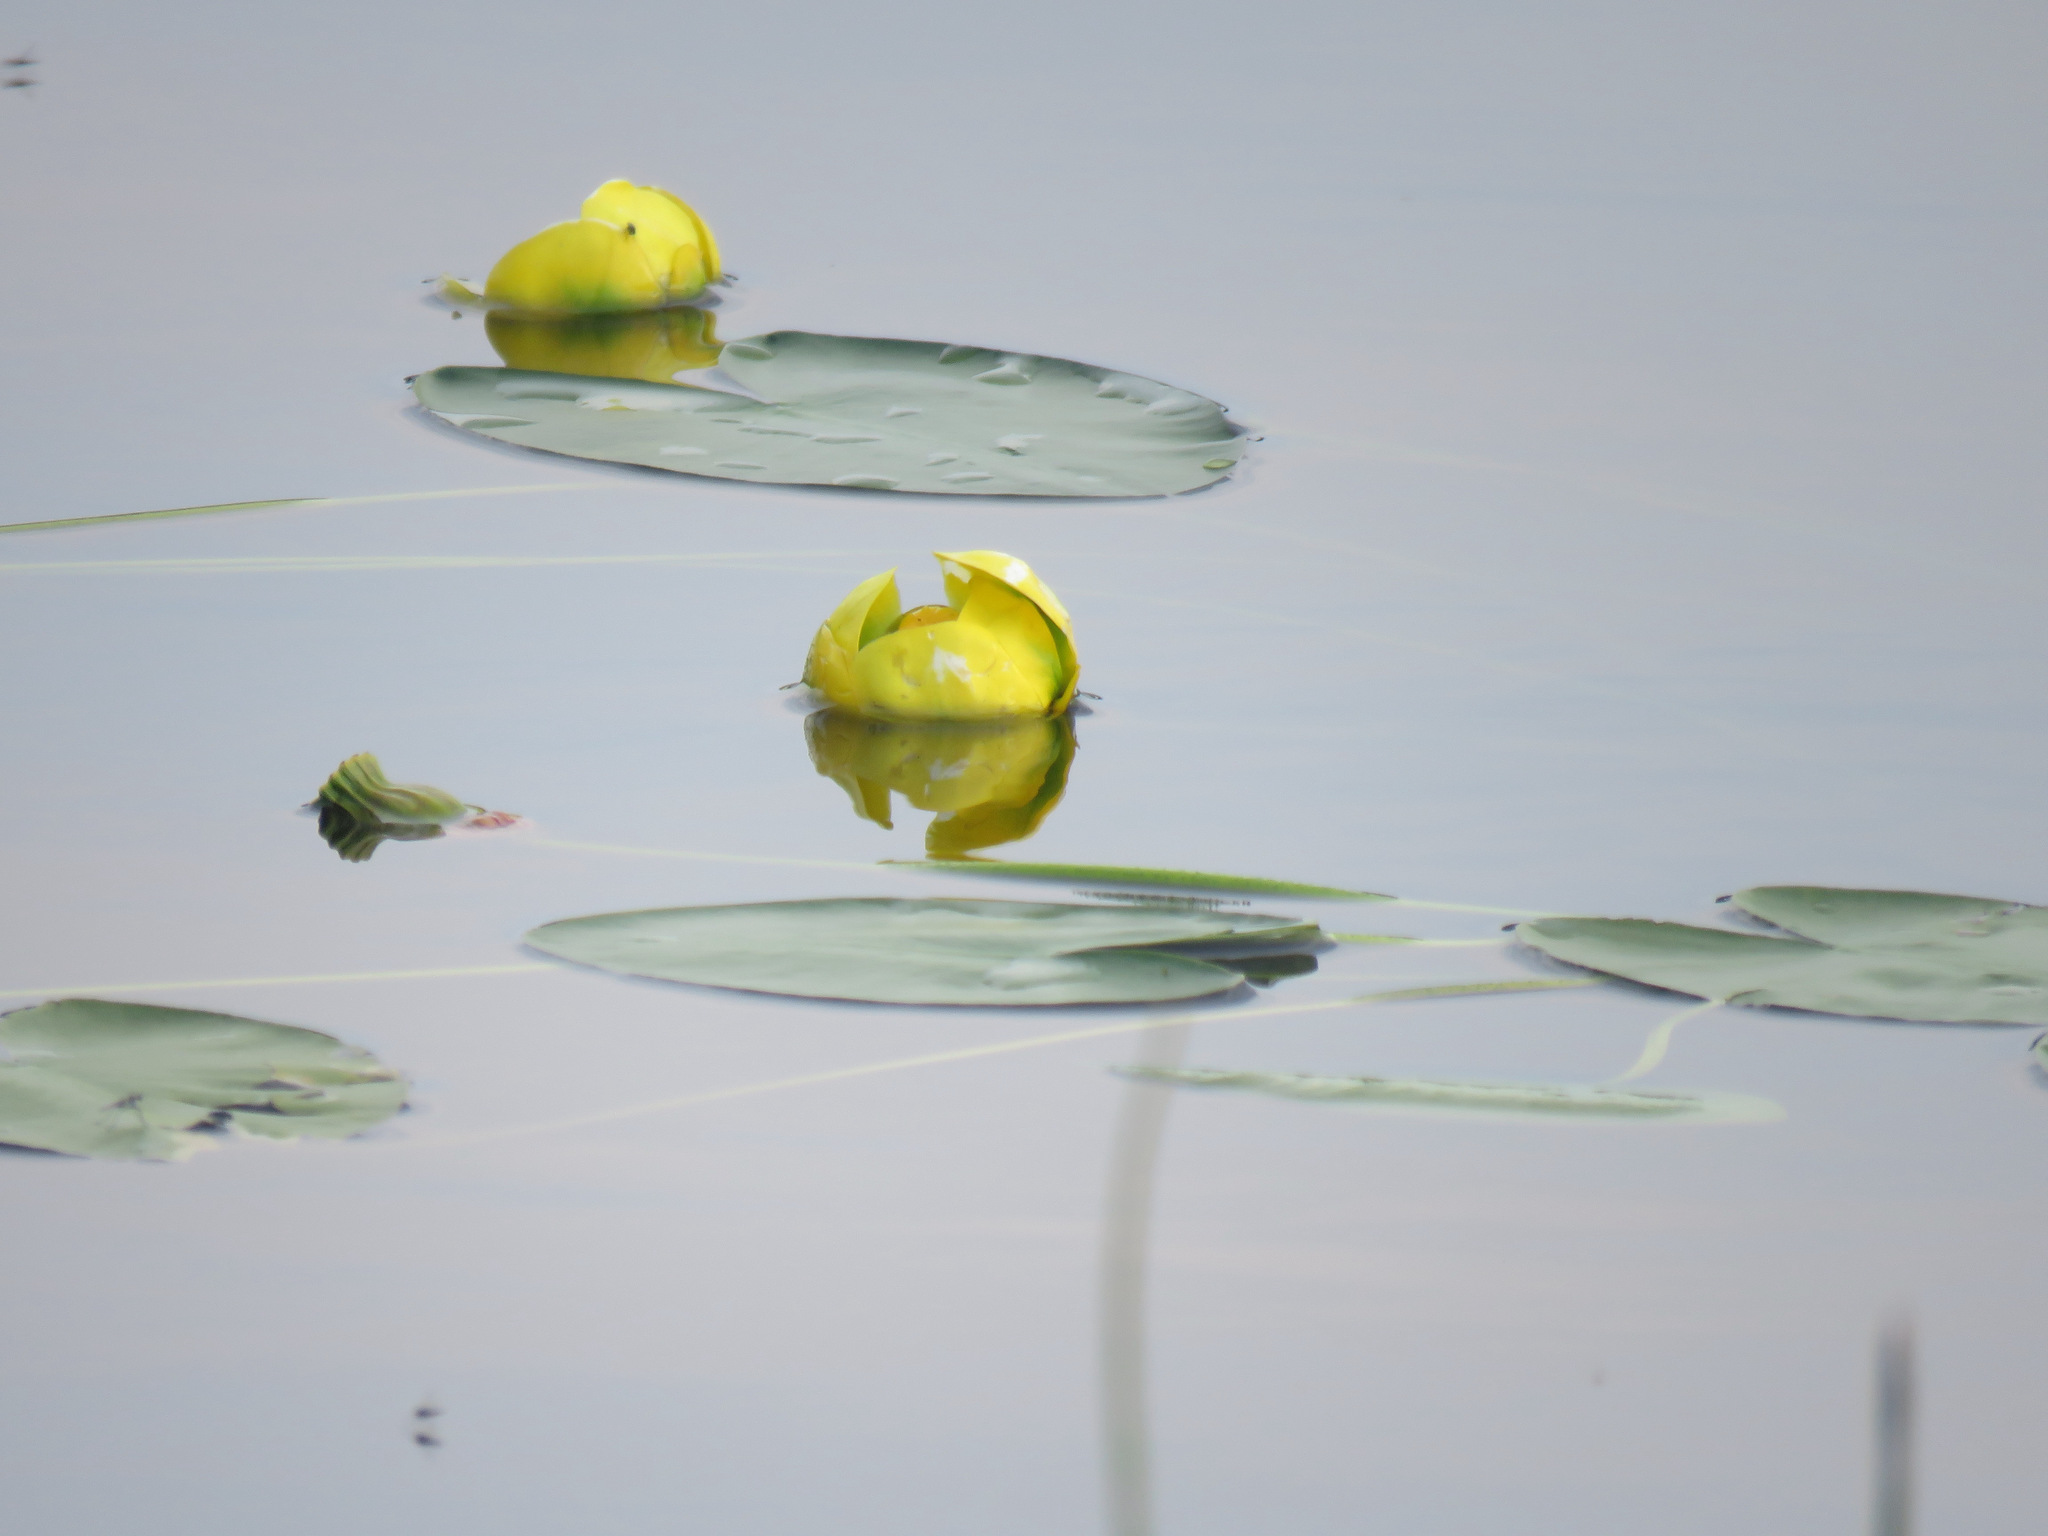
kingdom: Plantae
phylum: Tracheophyta
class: Magnoliopsida
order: Nymphaeales
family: Nymphaeaceae
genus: Nuphar
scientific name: Nuphar polysepala
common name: Rocky mountain cow-lily
